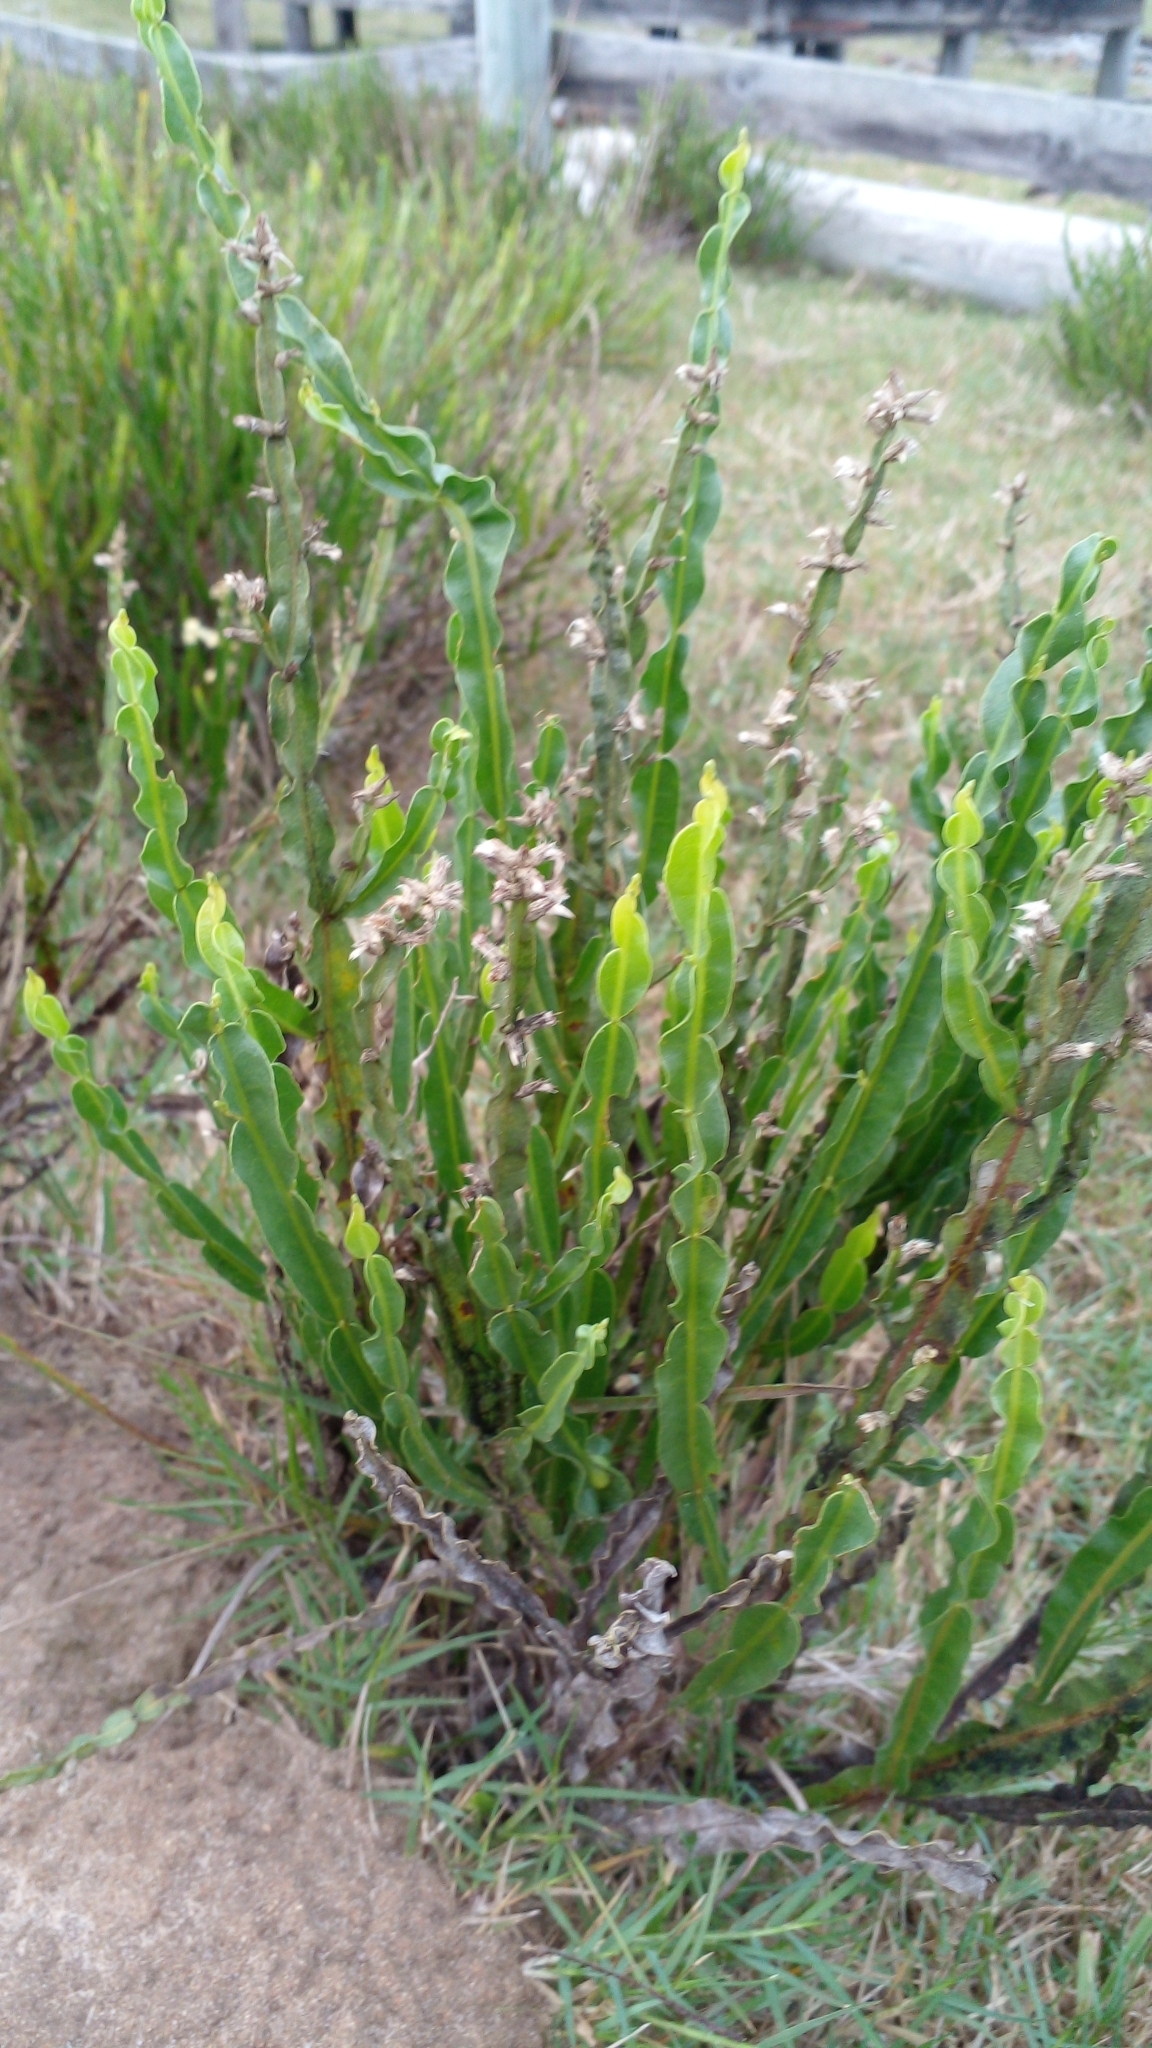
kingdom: Plantae
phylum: Tracheophyta
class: Magnoliopsida
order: Asterales
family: Asteraceae
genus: Baccharis
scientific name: Baccharis trimera
